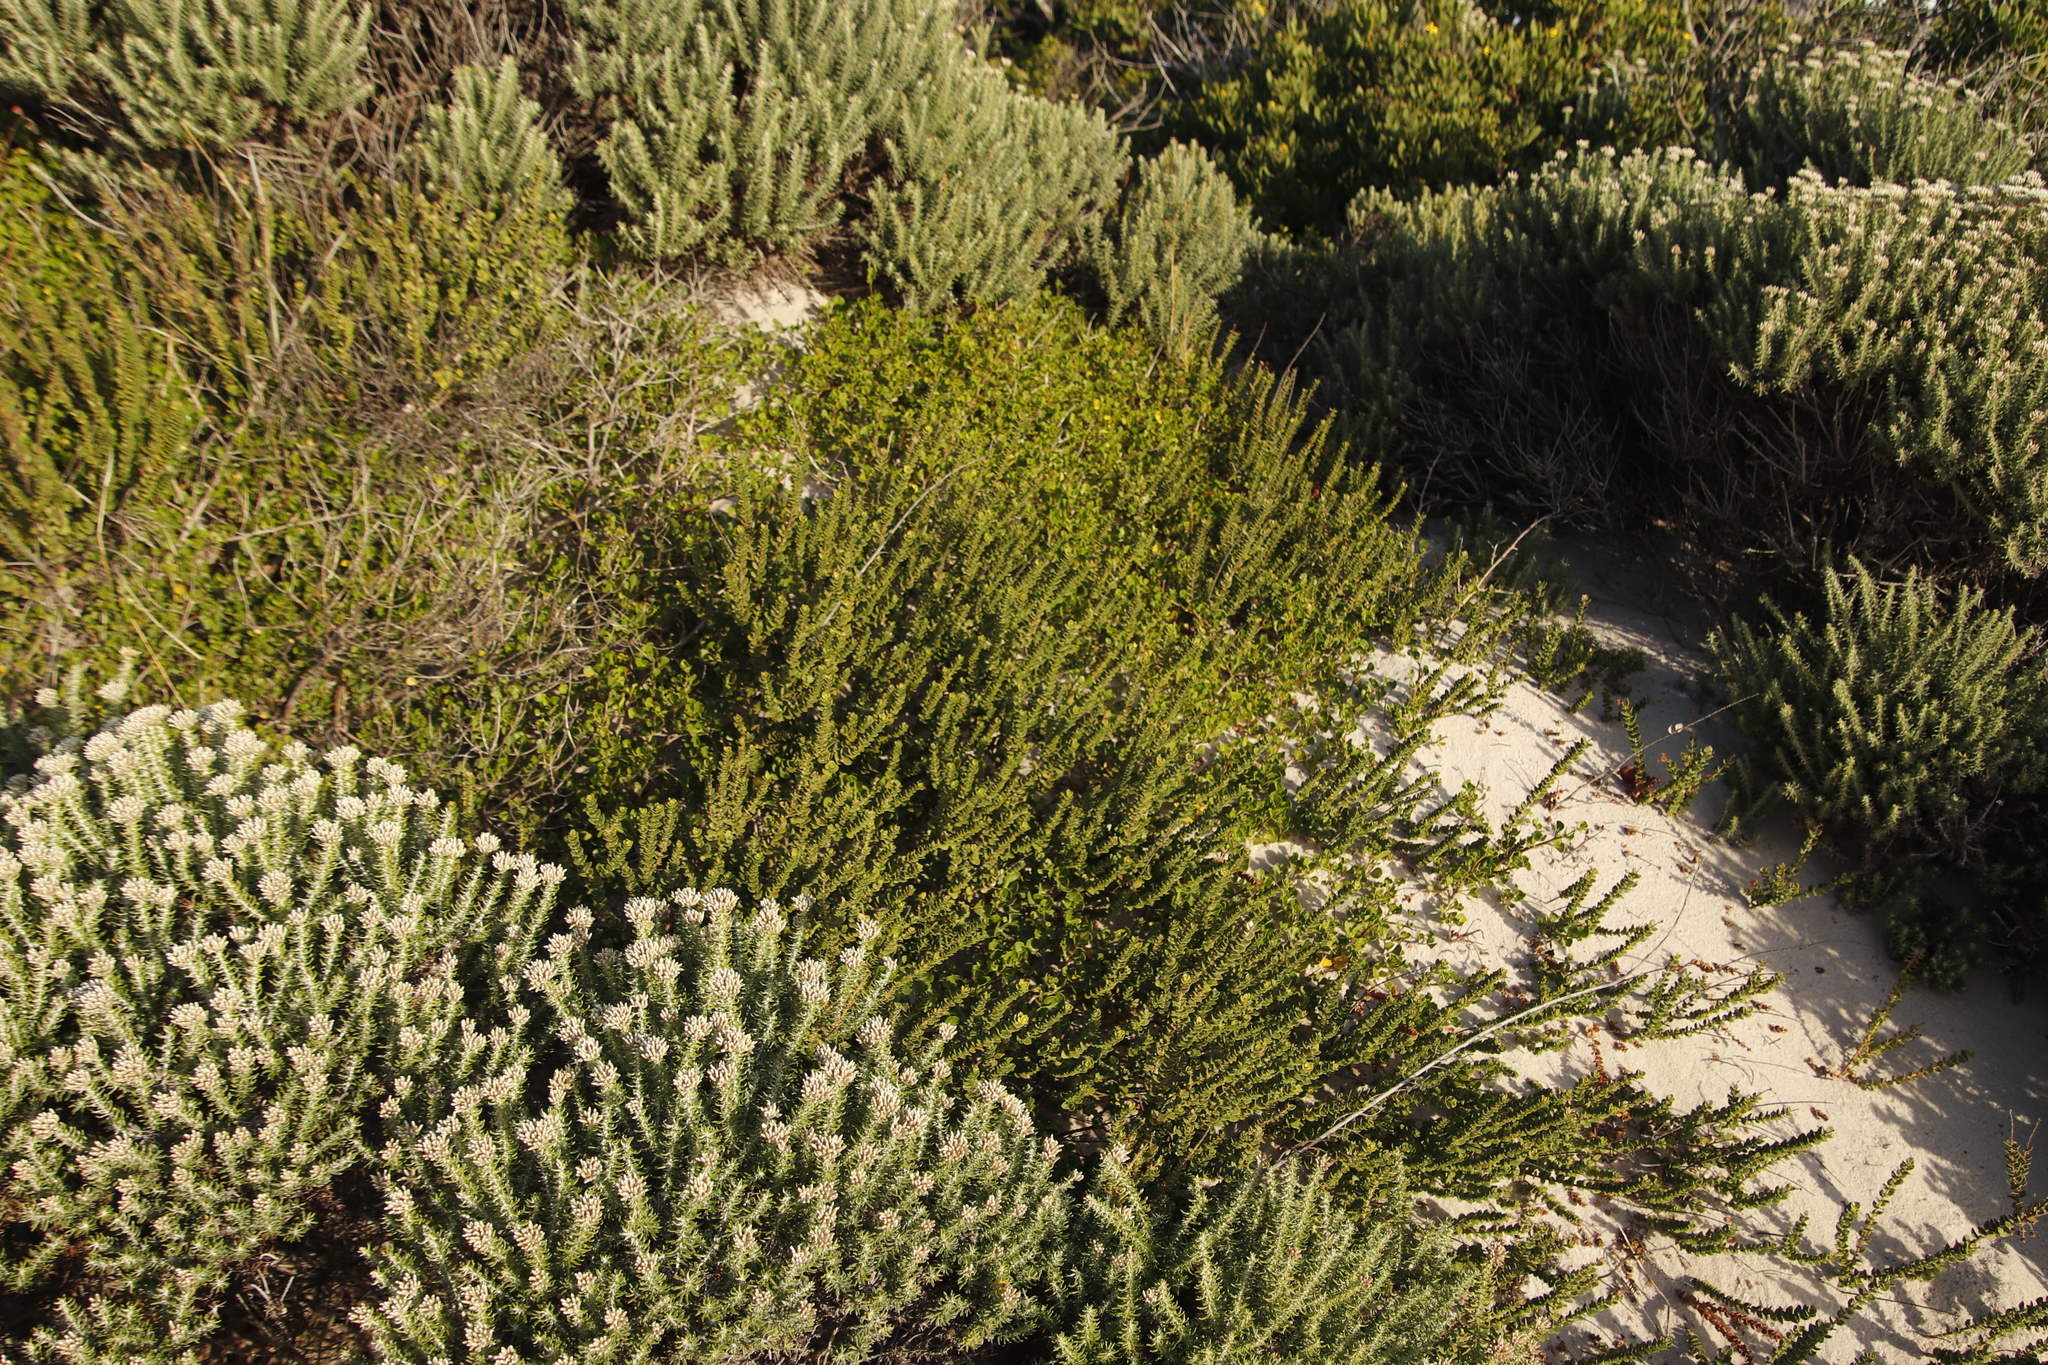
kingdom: Plantae
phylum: Tracheophyta
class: Magnoliopsida
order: Fagales
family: Myricaceae
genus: Morella
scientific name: Morella cordifolia
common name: Waxberry
